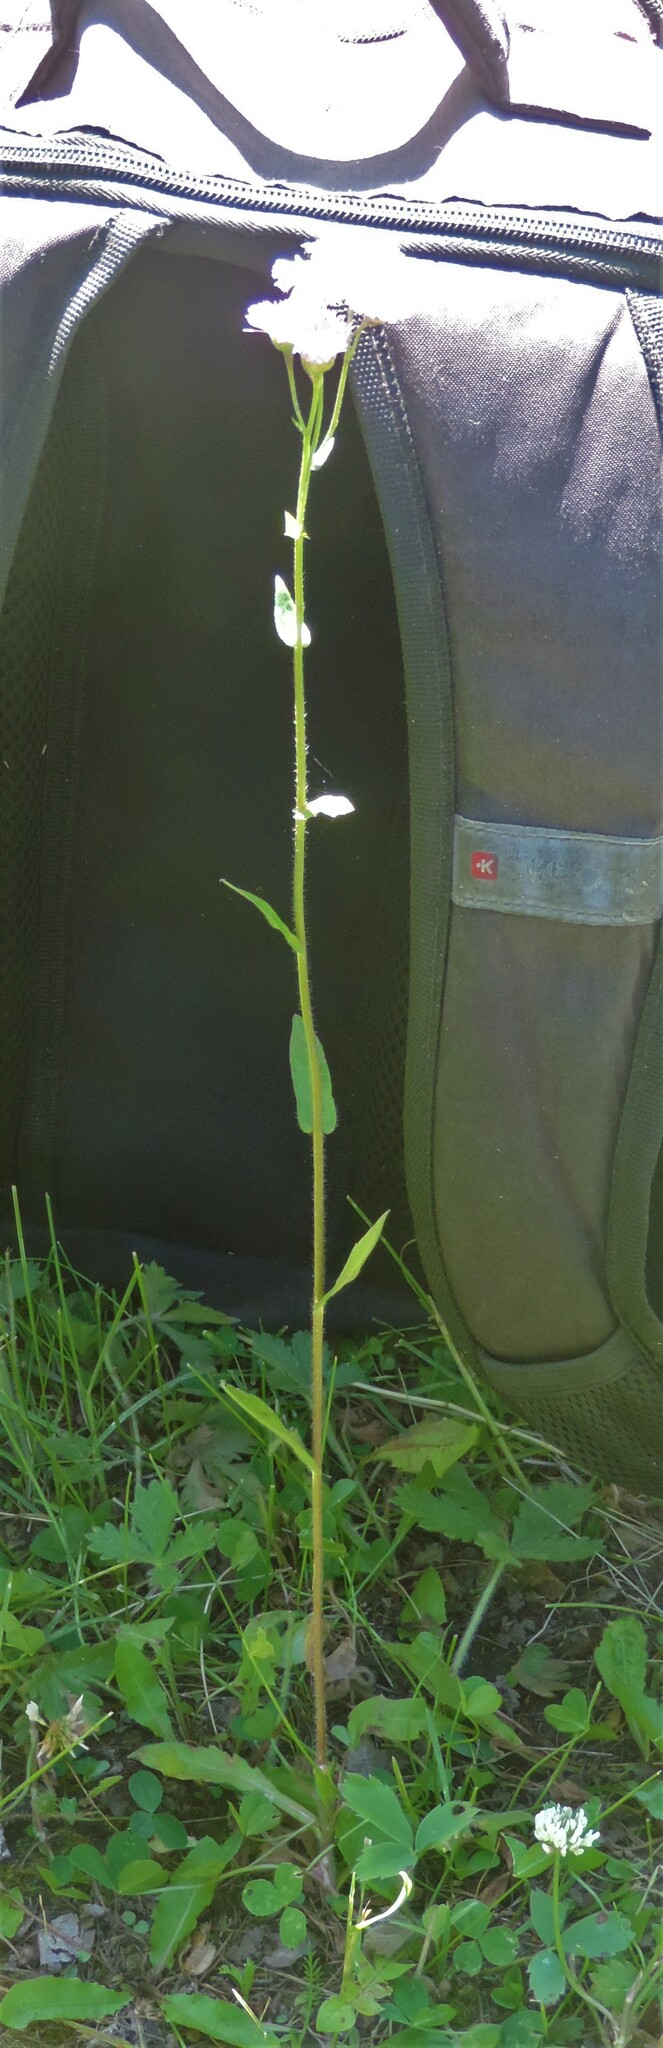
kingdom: Plantae
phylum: Tracheophyta
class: Magnoliopsida
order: Asterales
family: Asteraceae
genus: Erigeron
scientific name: Erigeron philadelphicus
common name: Robin's-plantain
